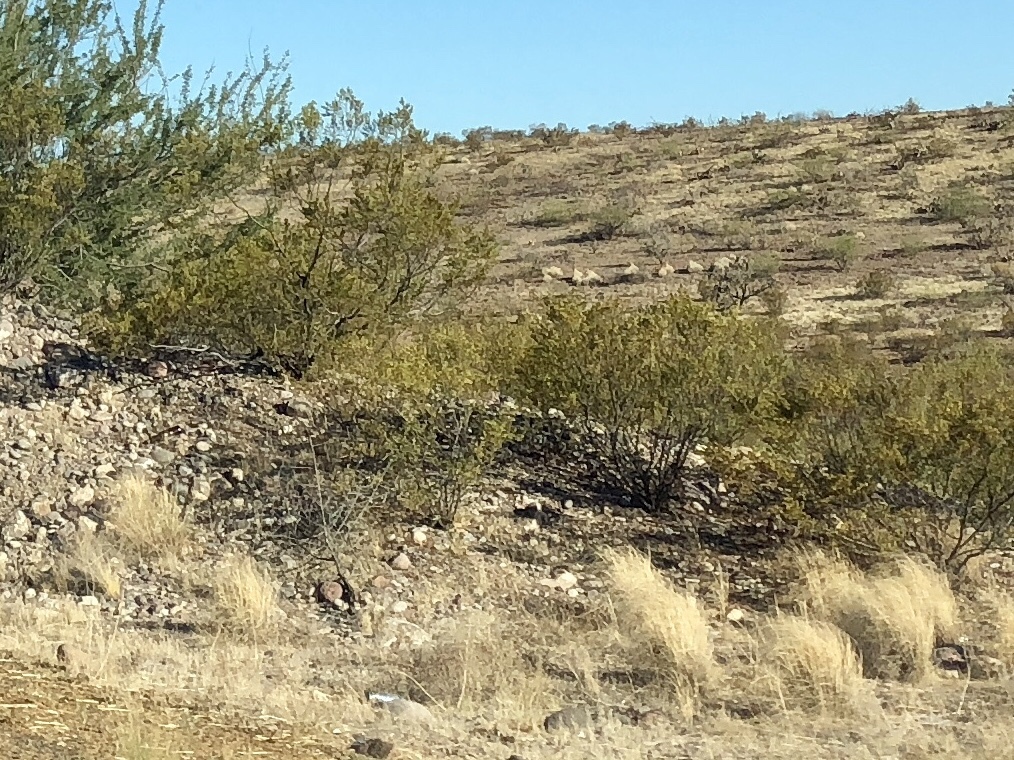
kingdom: Plantae
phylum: Tracheophyta
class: Magnoliopsida
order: Zygophyllales
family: Zygophyllaceae
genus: Larrea
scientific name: Larrea tridentata
